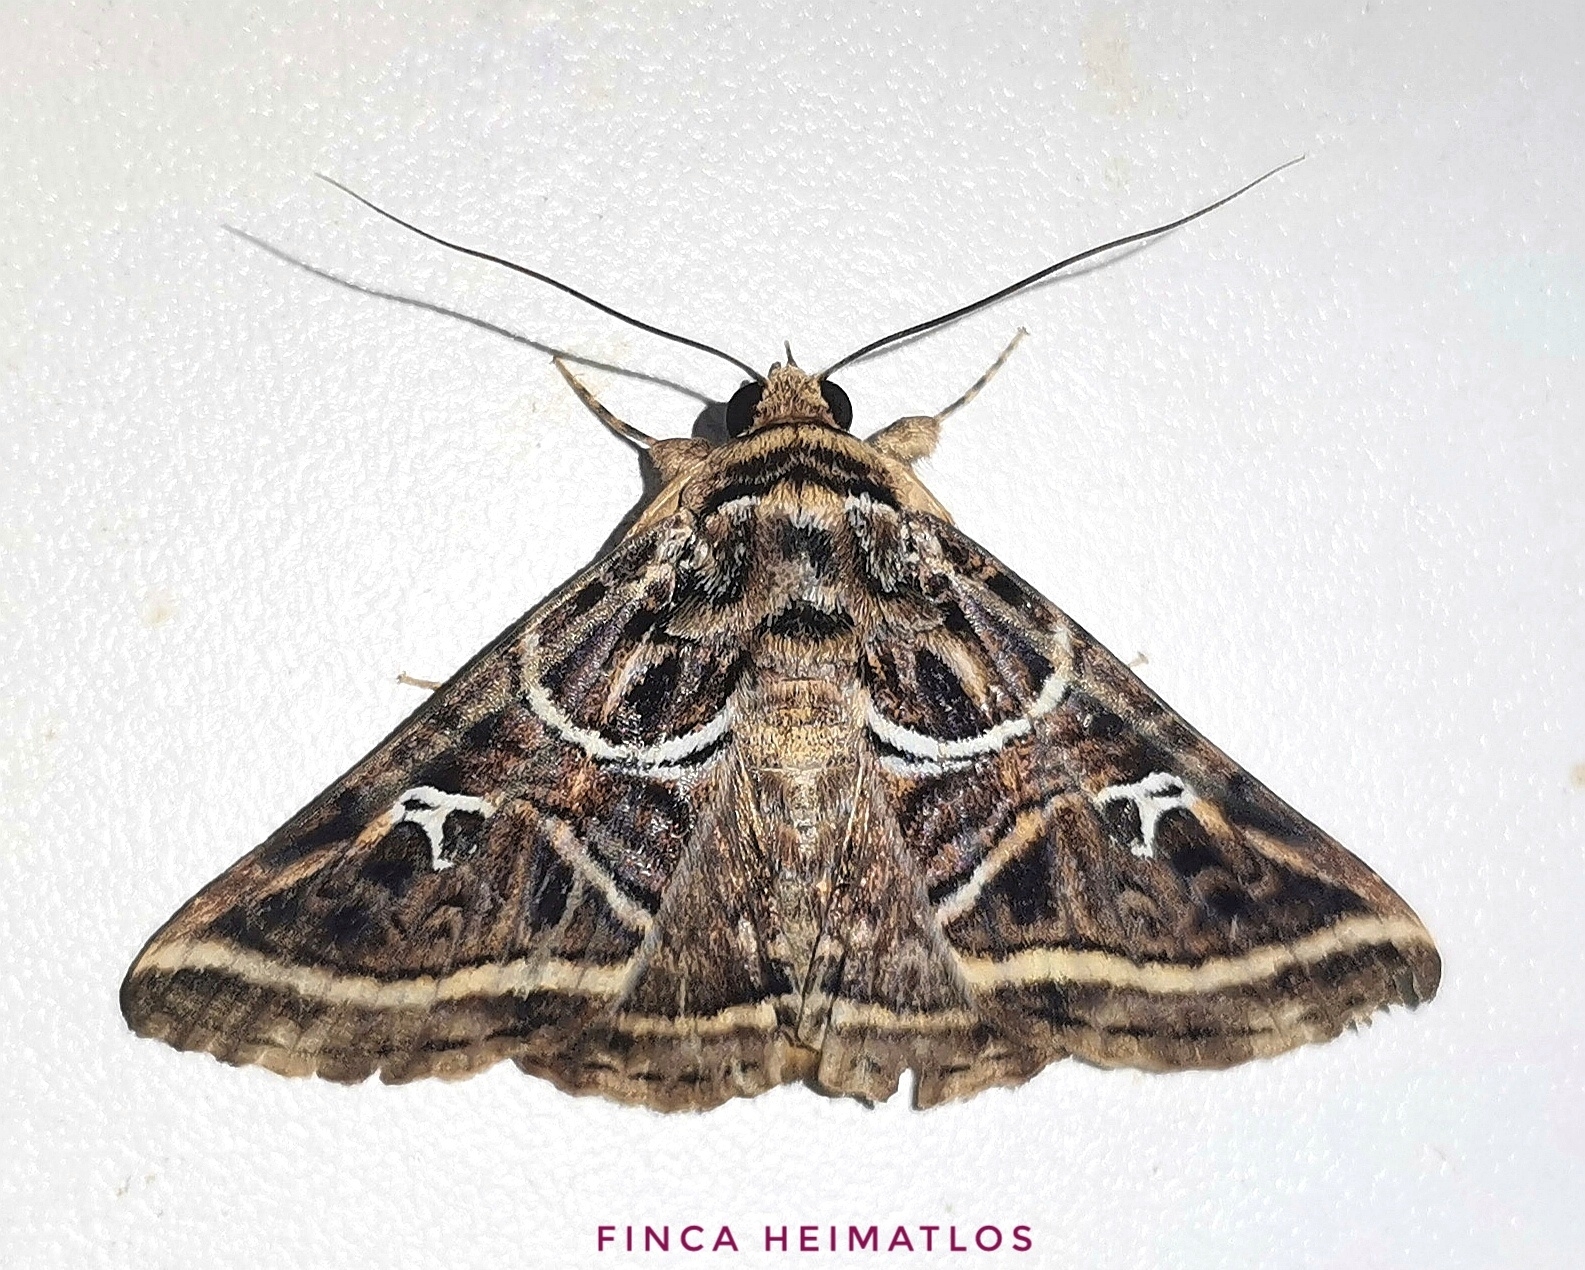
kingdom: Animalia
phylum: Arthropoda
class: Insecta
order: Lepidoptera
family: Erebidae
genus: Metria
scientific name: Metria
